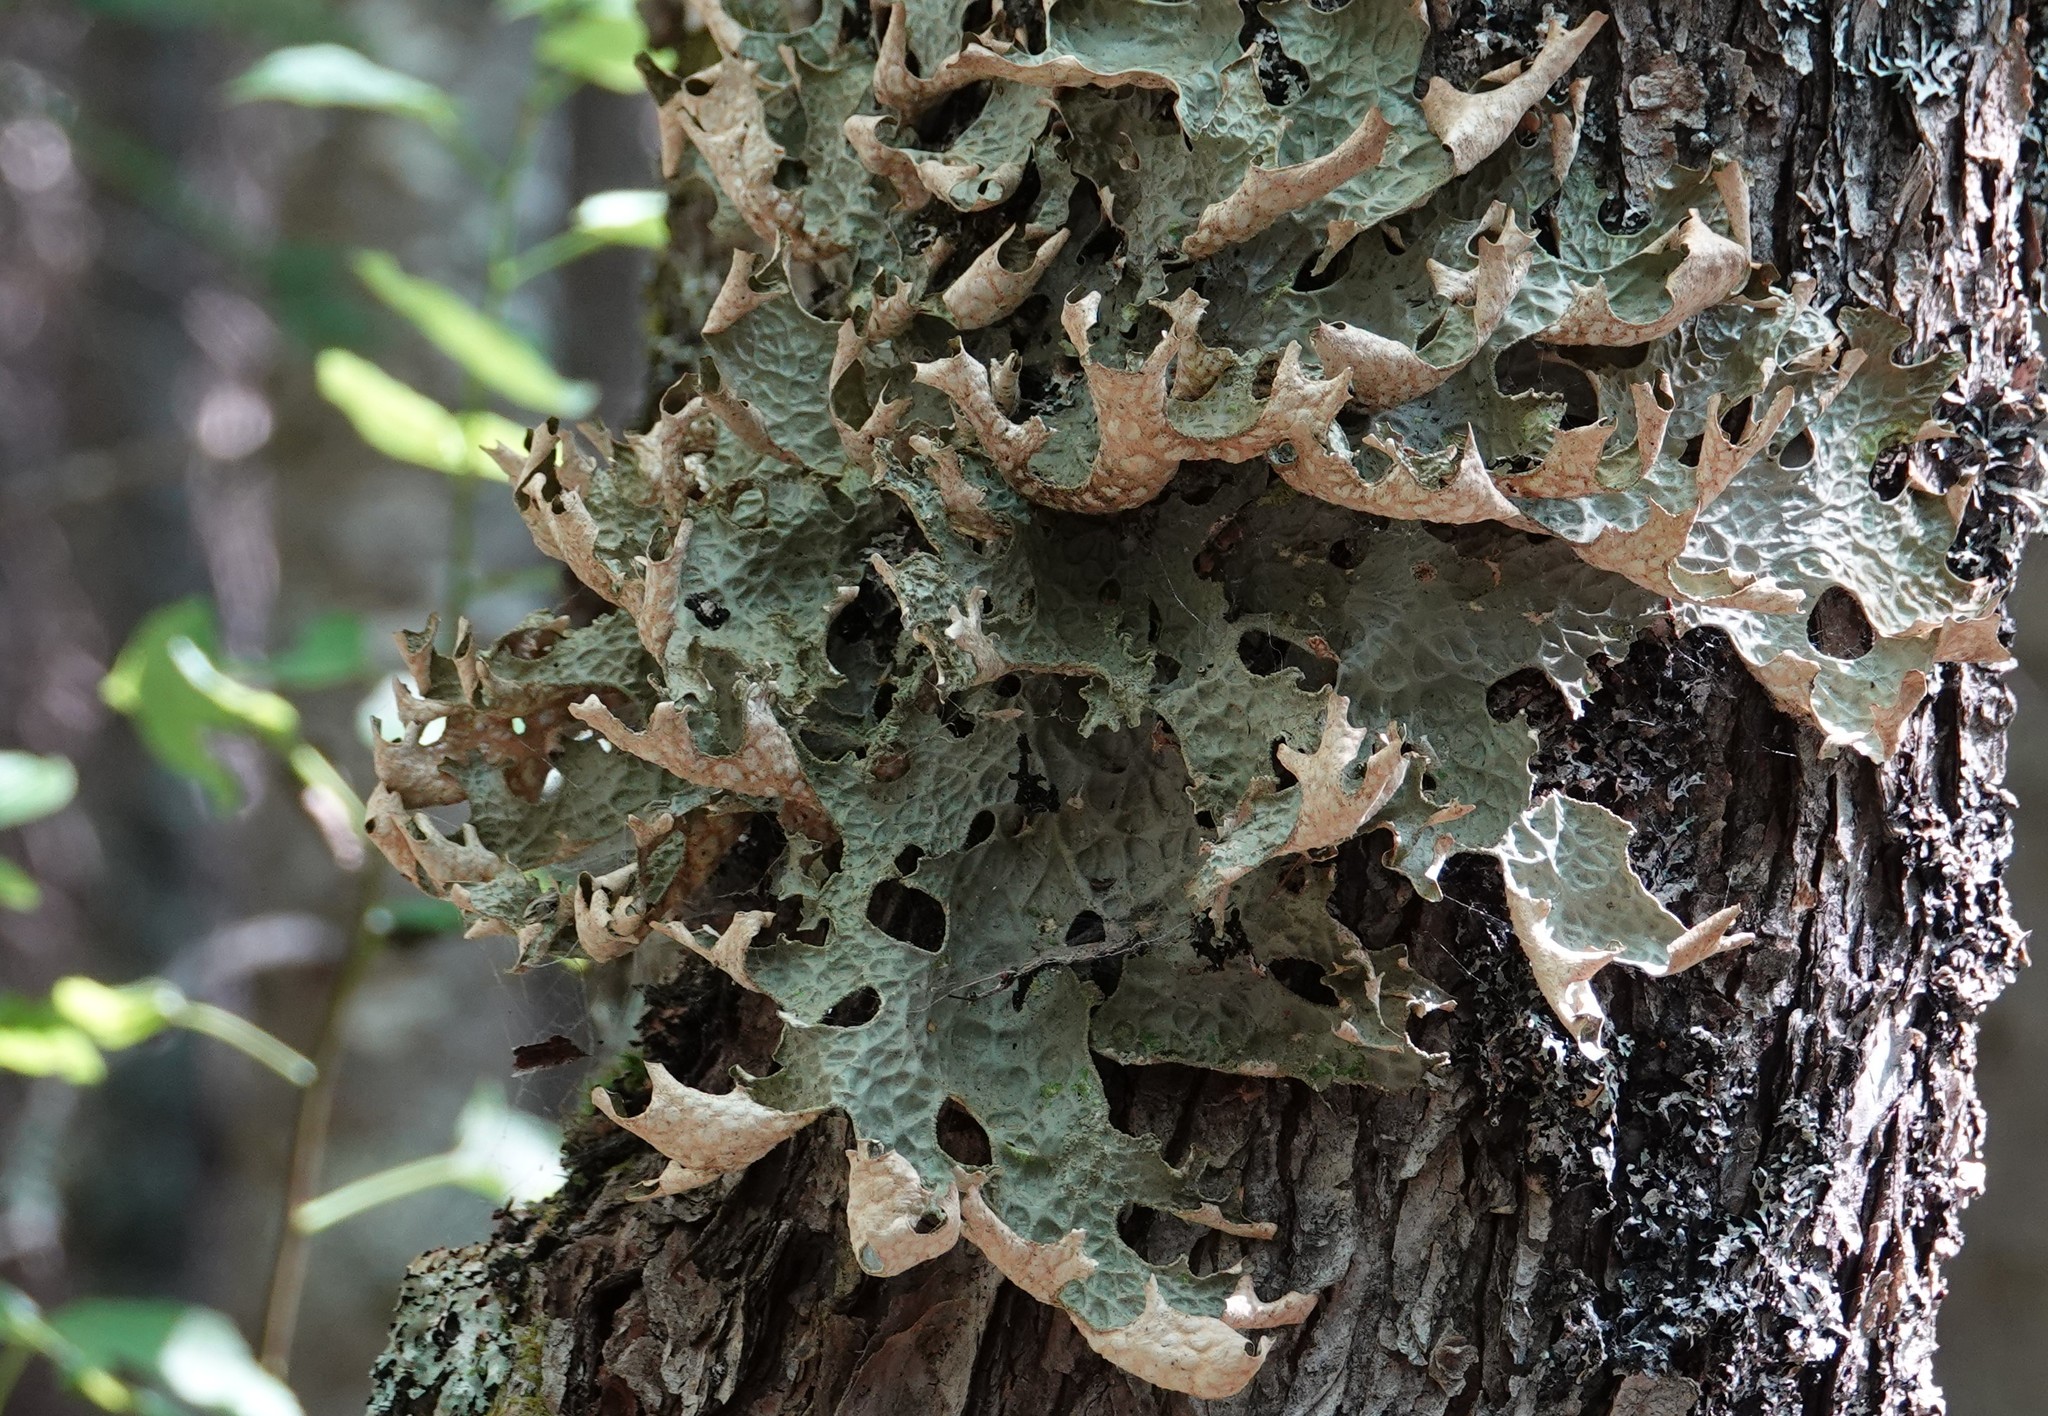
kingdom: Fungi
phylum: Ascomycota
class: Lecanoromycetes
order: Peltigerales
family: Lobariaceae
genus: Lobaria
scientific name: Lobaria pulmonaria
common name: Lungwort
